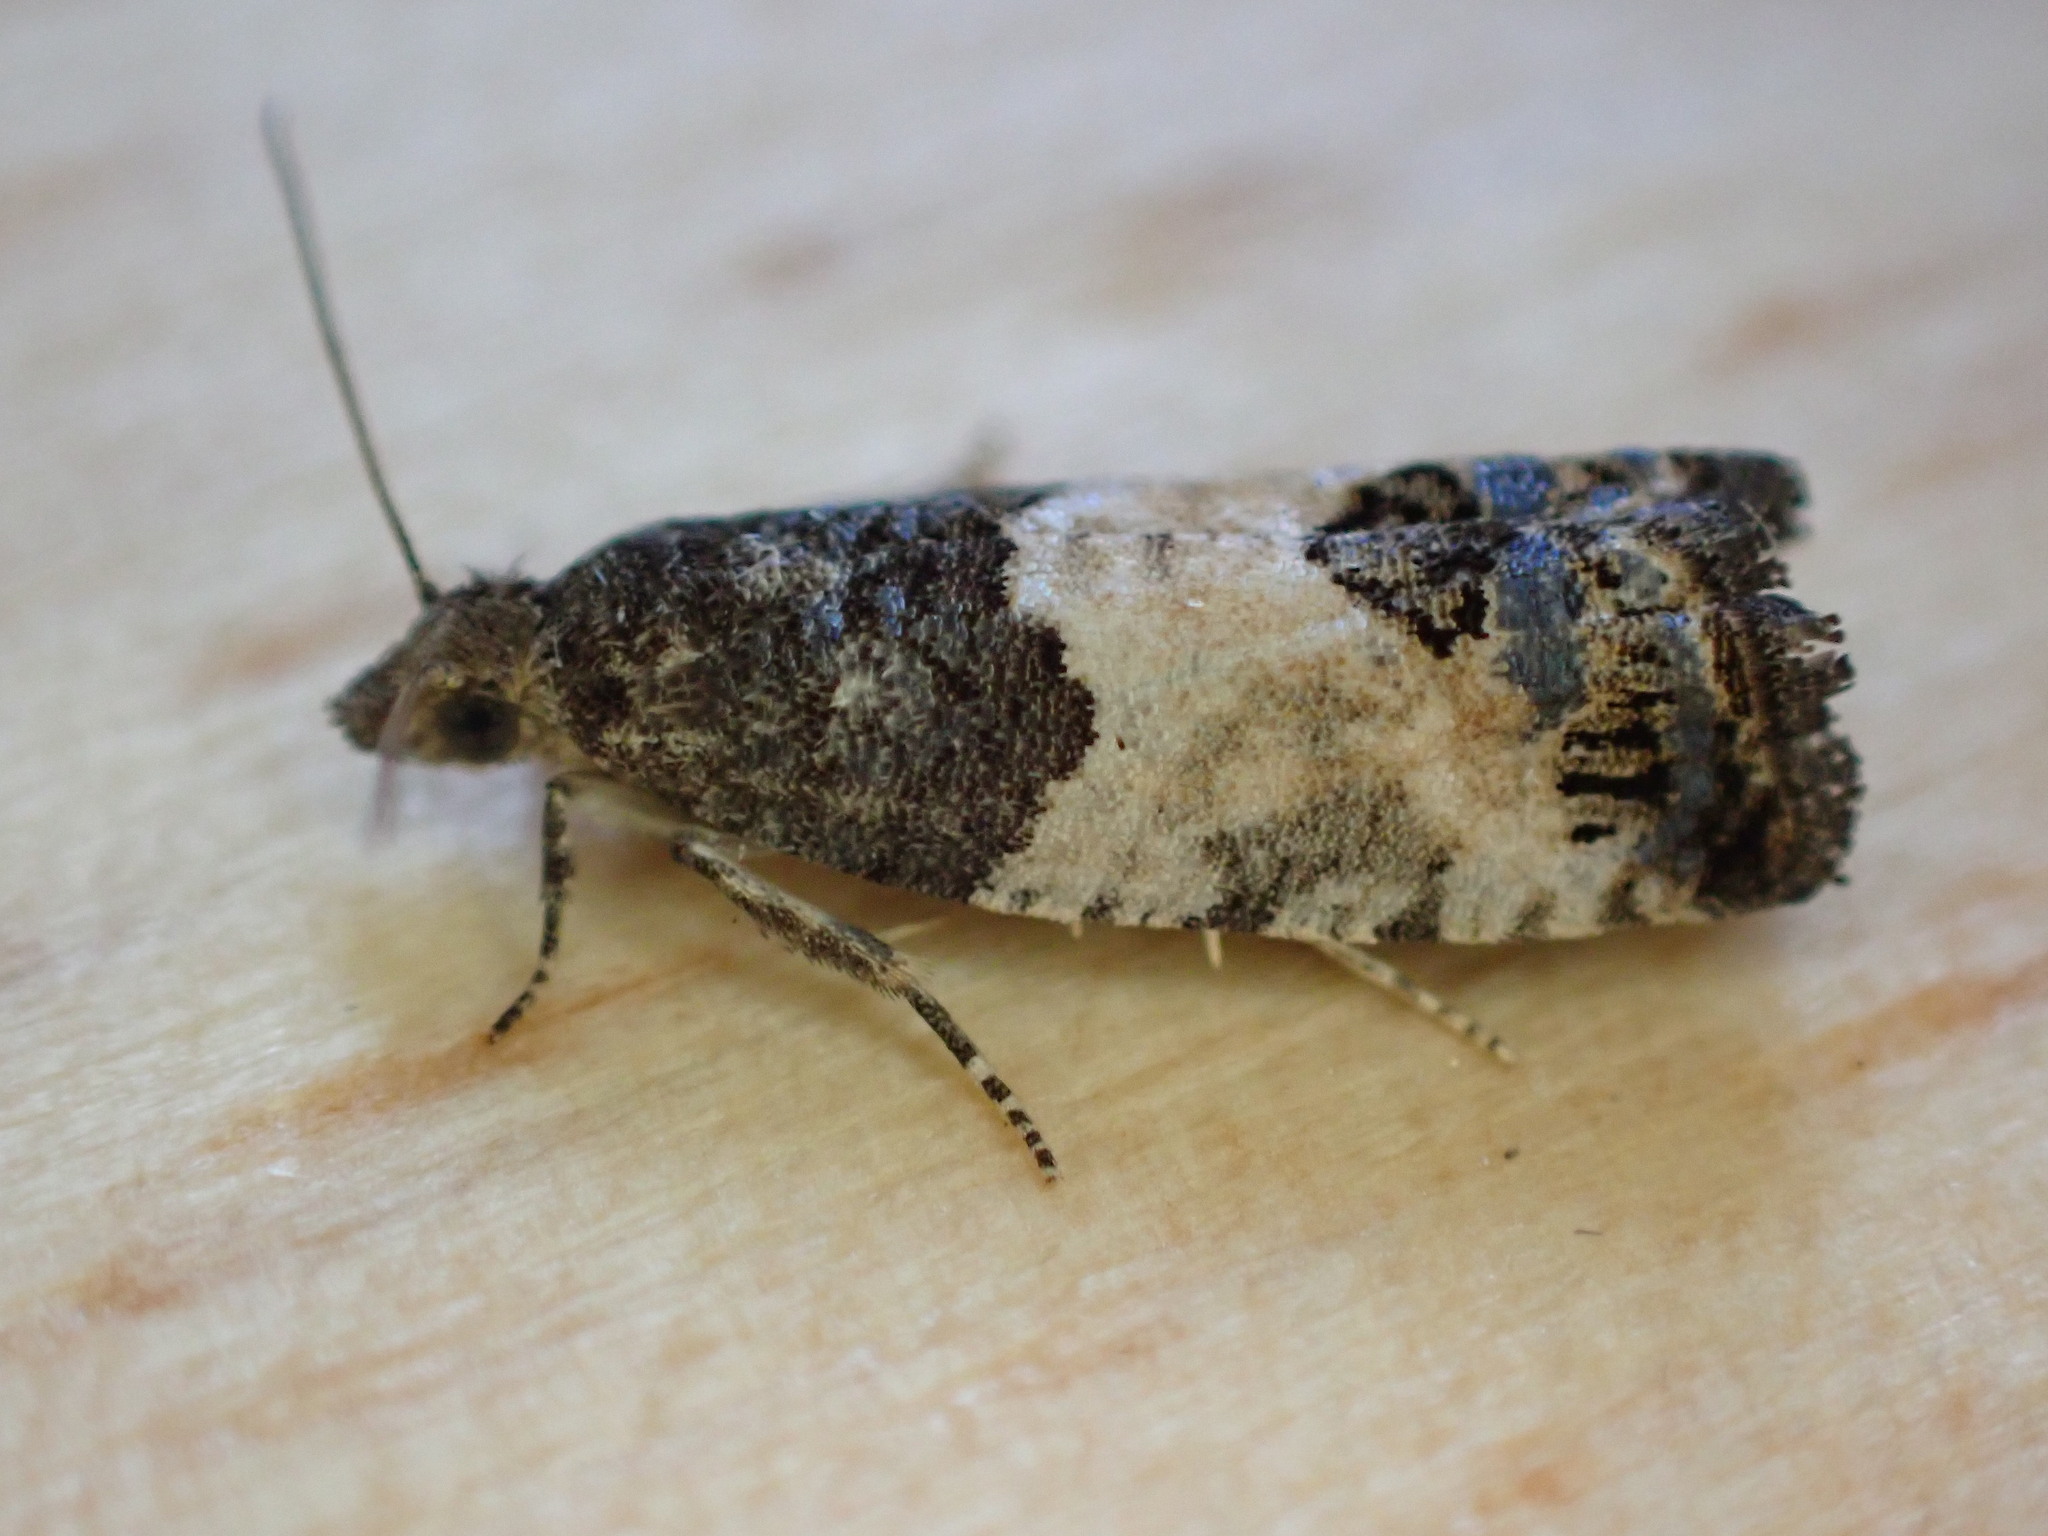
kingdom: Animalia
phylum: Arthropoda
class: Insecta
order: Lepidoptera
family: Tortricidae
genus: Spilonota
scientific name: Spilonota ocellana
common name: Bud moth
